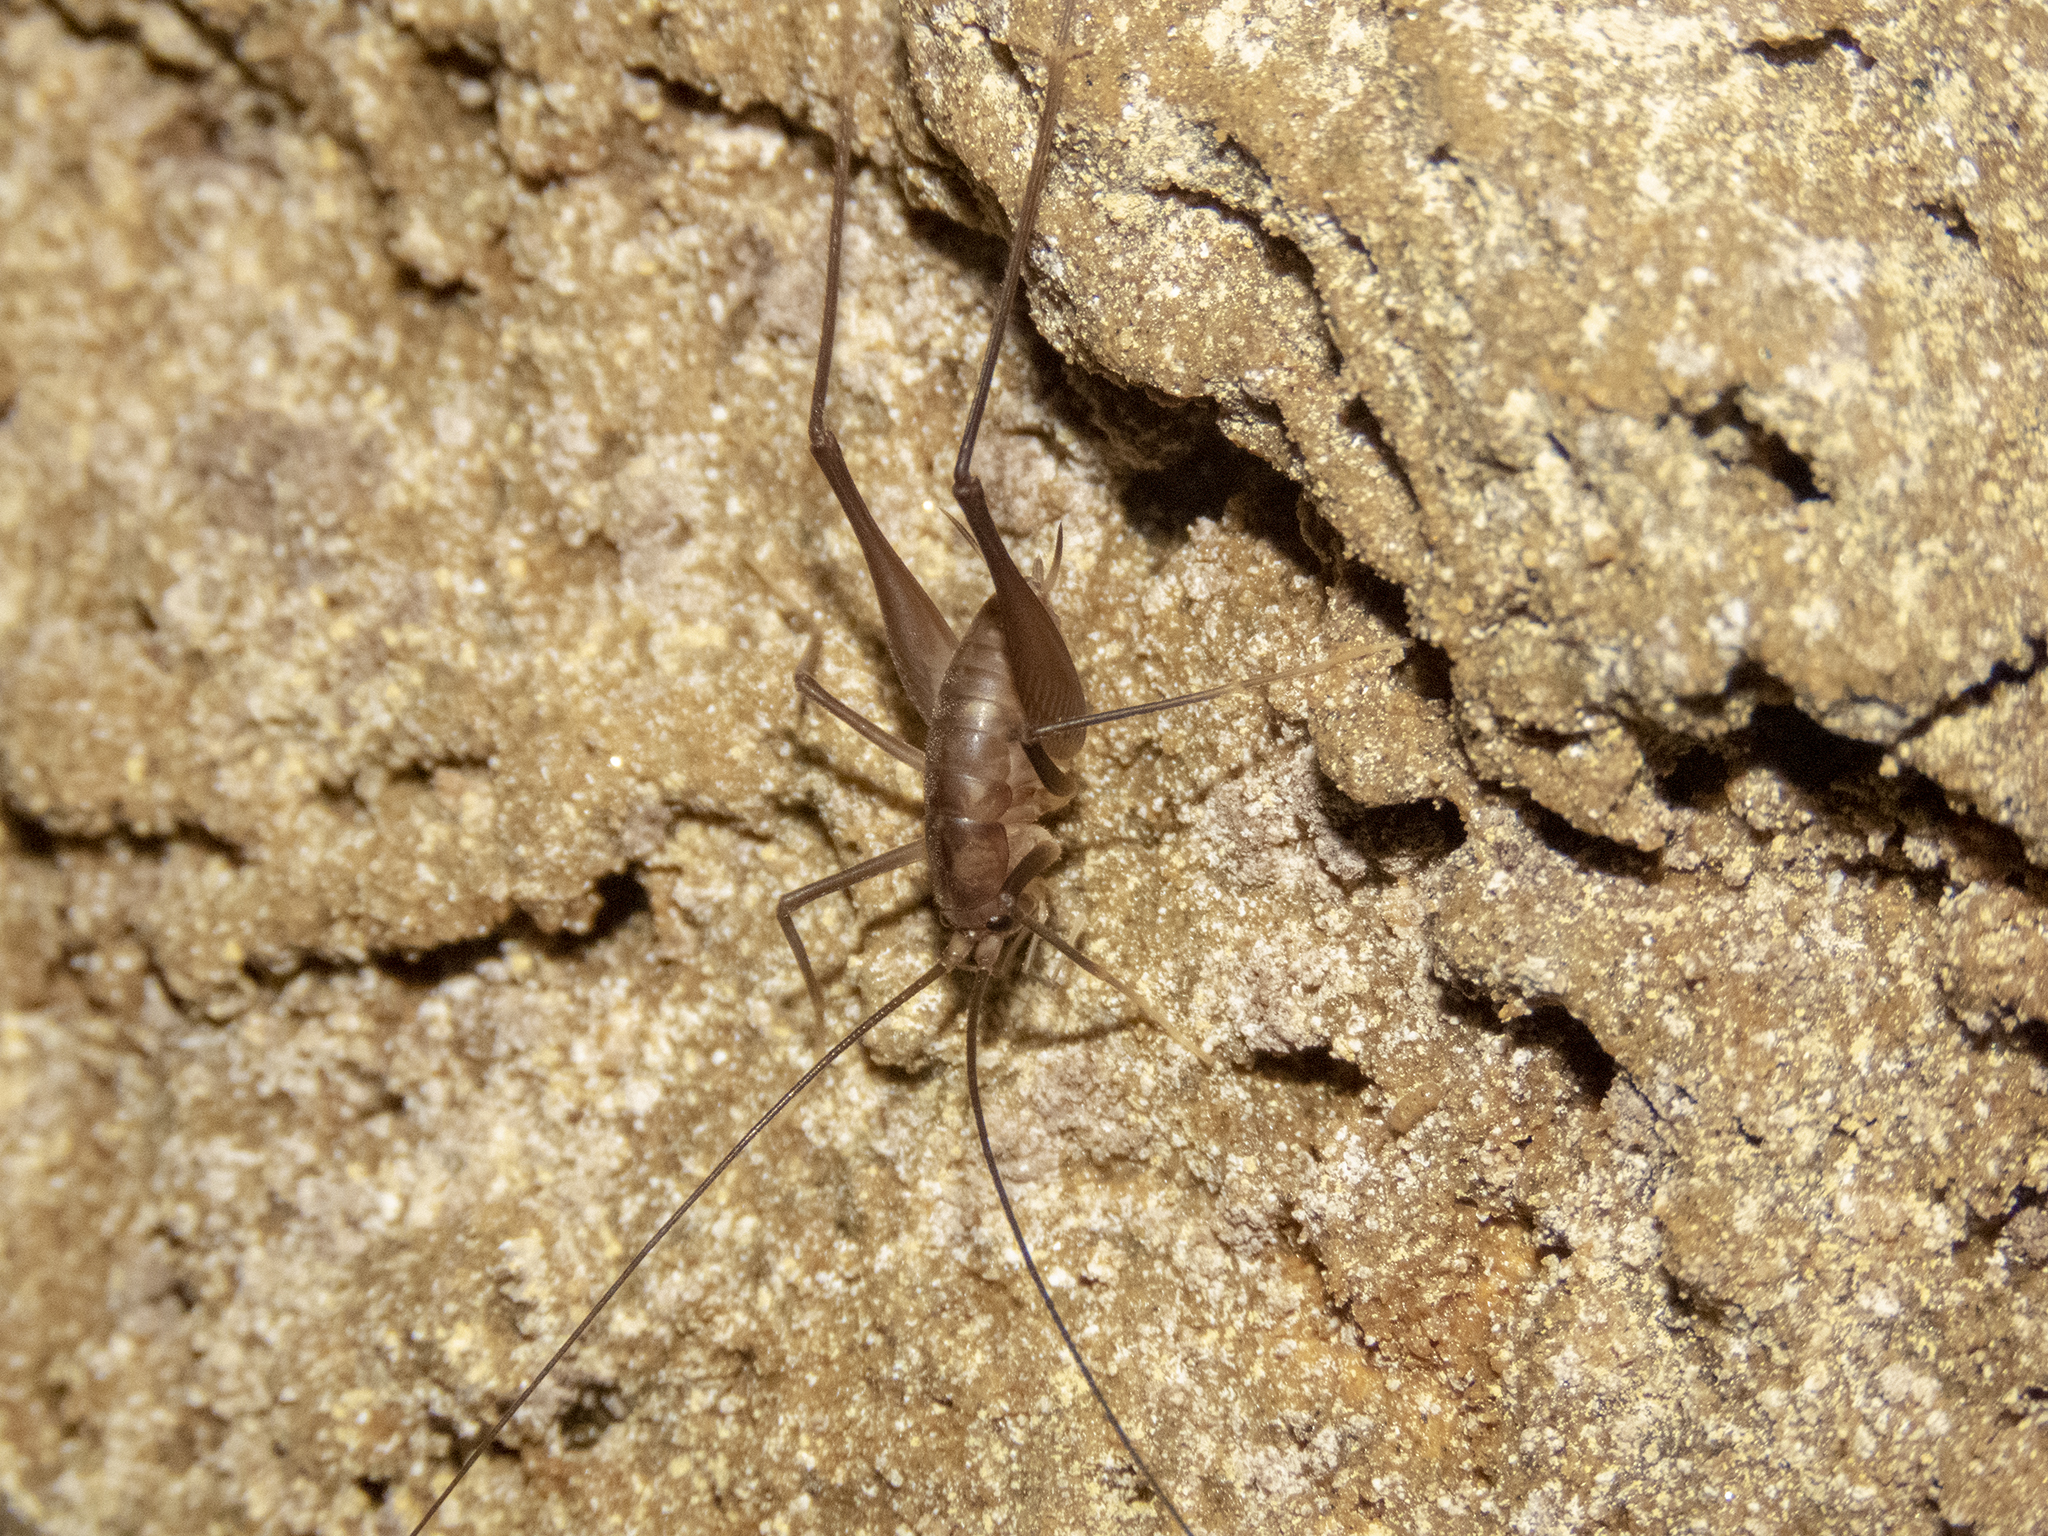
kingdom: Animalia
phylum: Arthropoda
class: Insecta
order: Orthoptera
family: Rhaphidophoridae
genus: Macropathus
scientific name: Macropathus filifer
